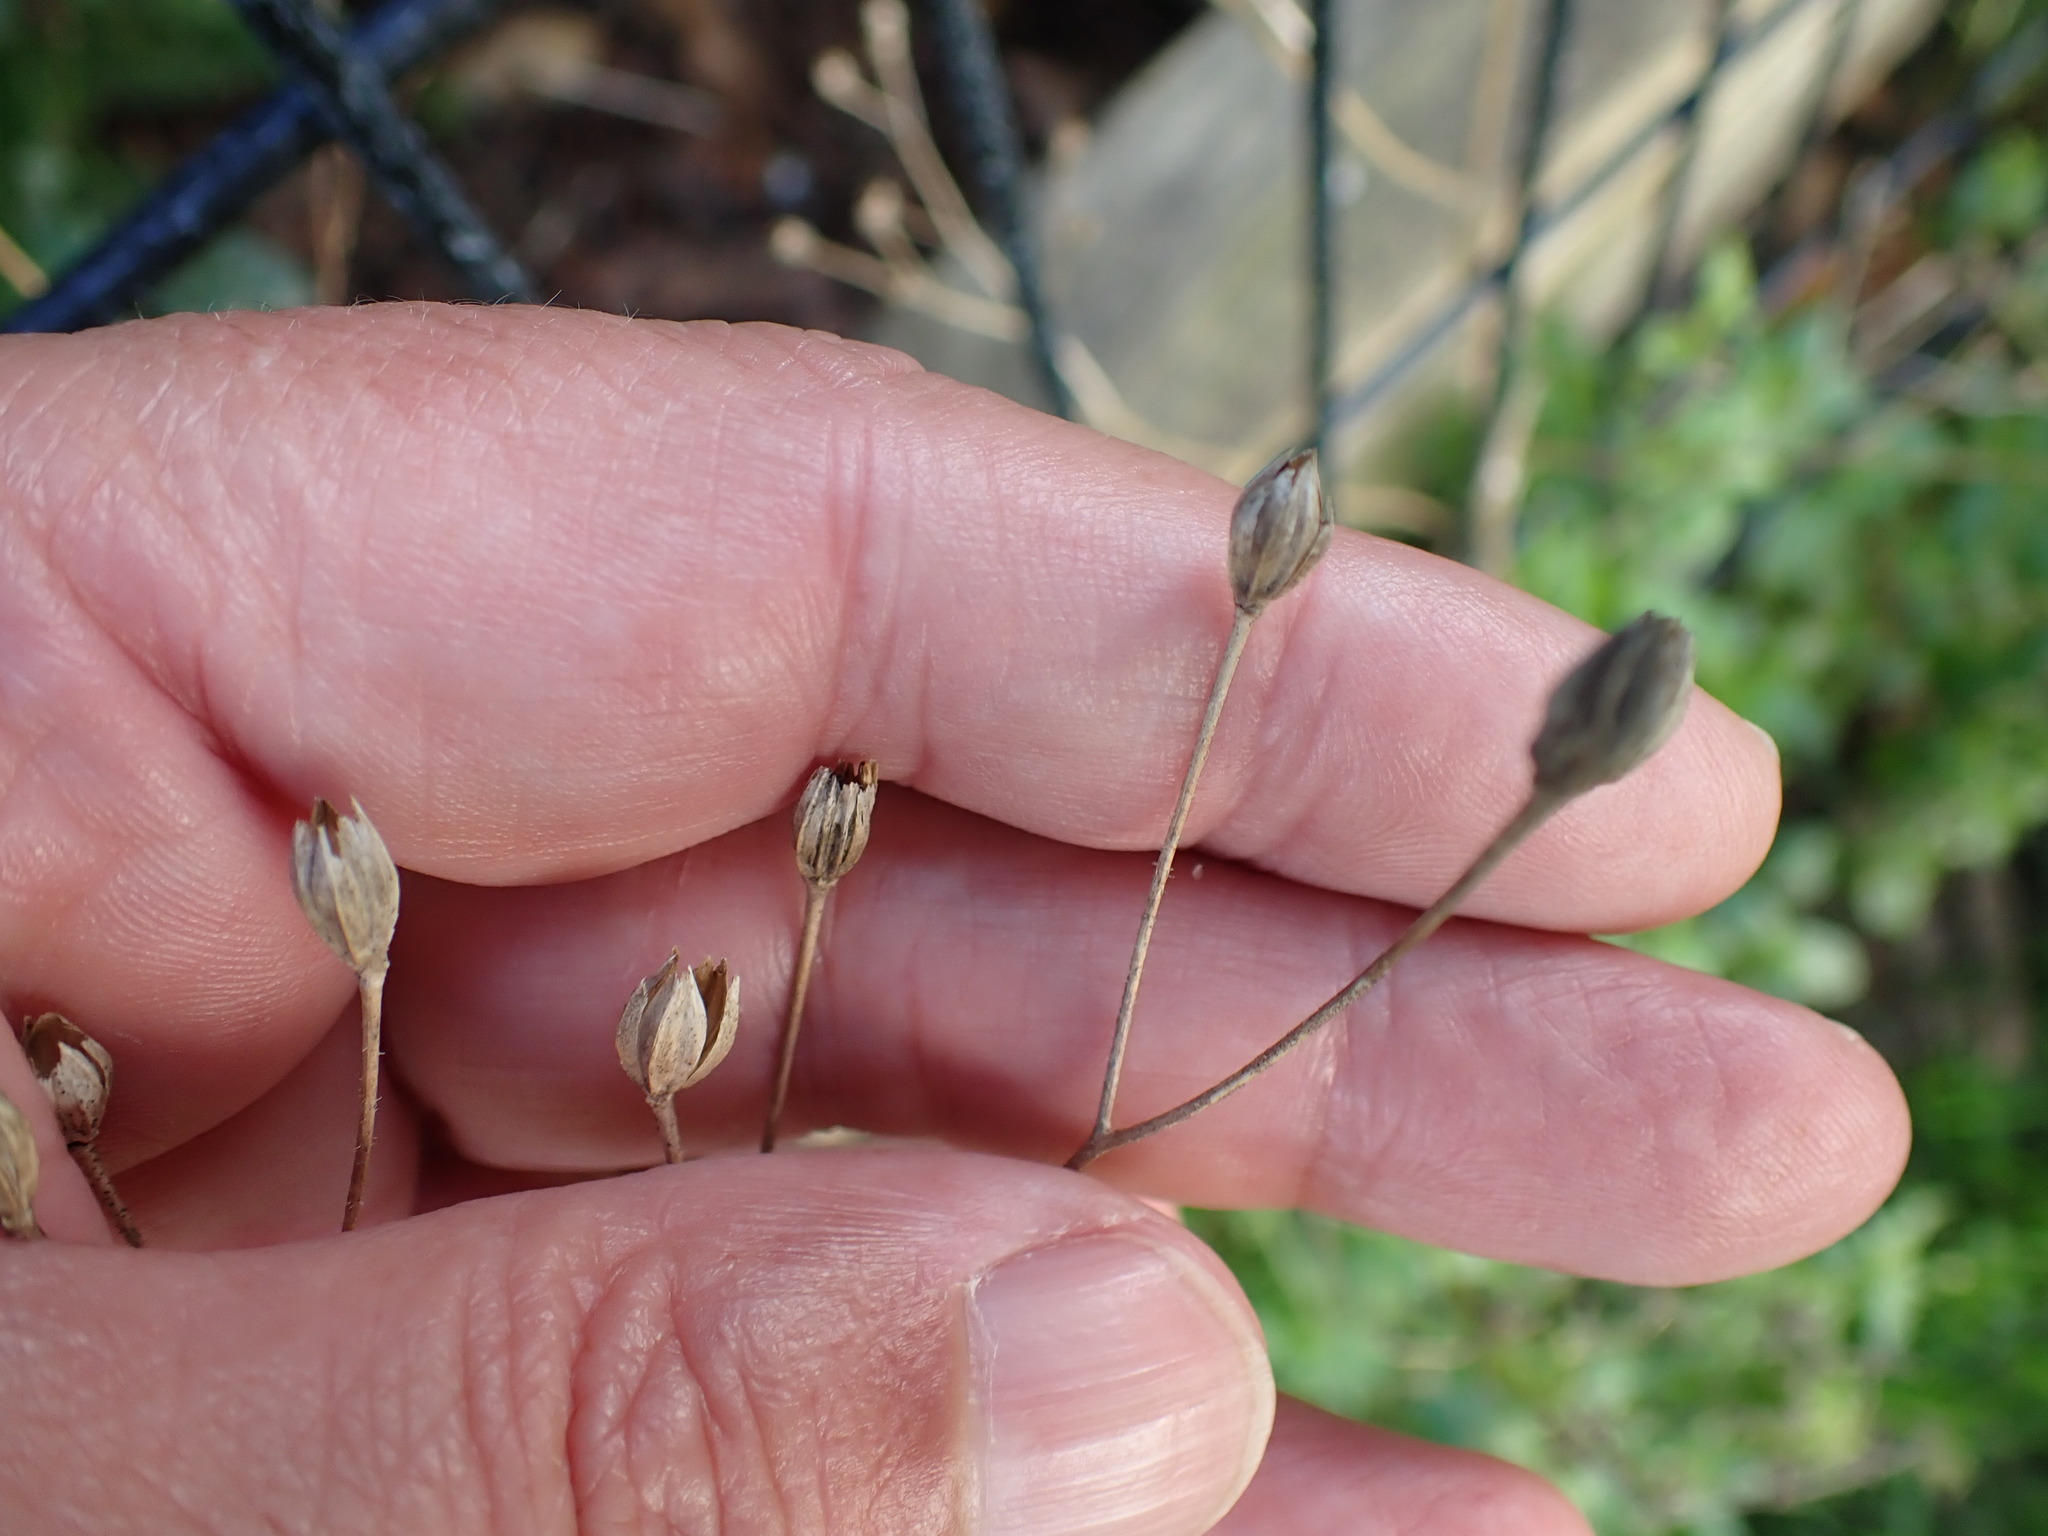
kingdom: Plantae
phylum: Tracheophyta
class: Magnoliopsida
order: Asterales
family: Asteraceae
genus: Lapsana
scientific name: Lapsana communis
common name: Nipplewort
